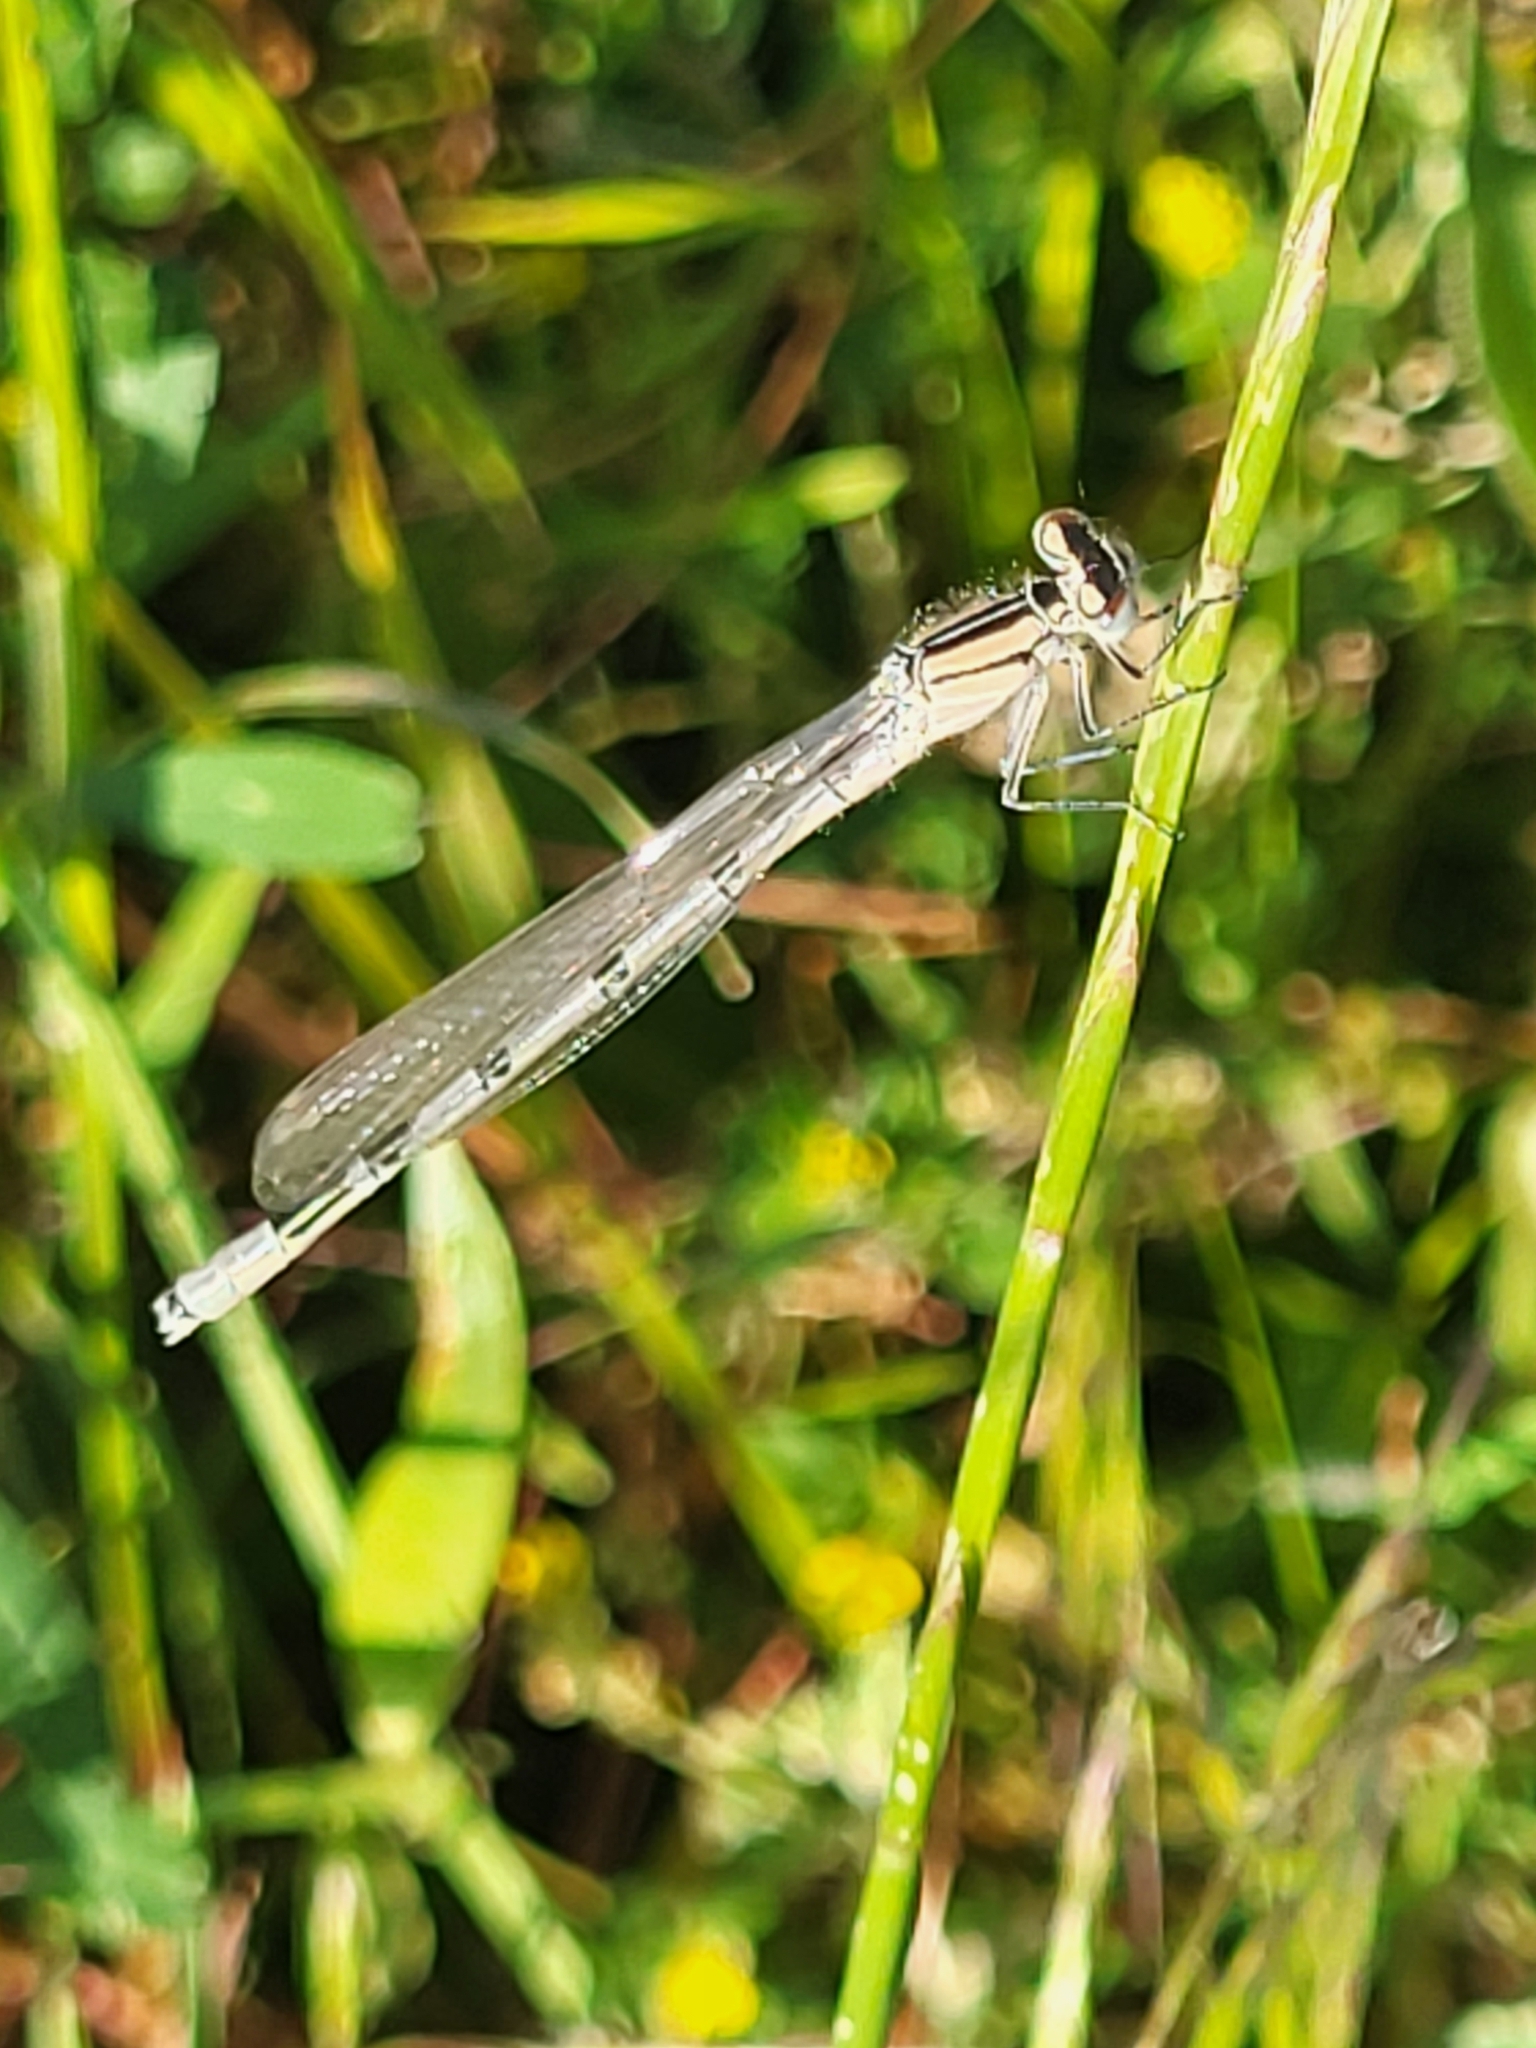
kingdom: Animalia
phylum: Arthropoda
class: Insecta
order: Odonata
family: Coenagrionidae
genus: Enallagma
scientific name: Enallagma cyathigerum
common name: Common blue damselfly
